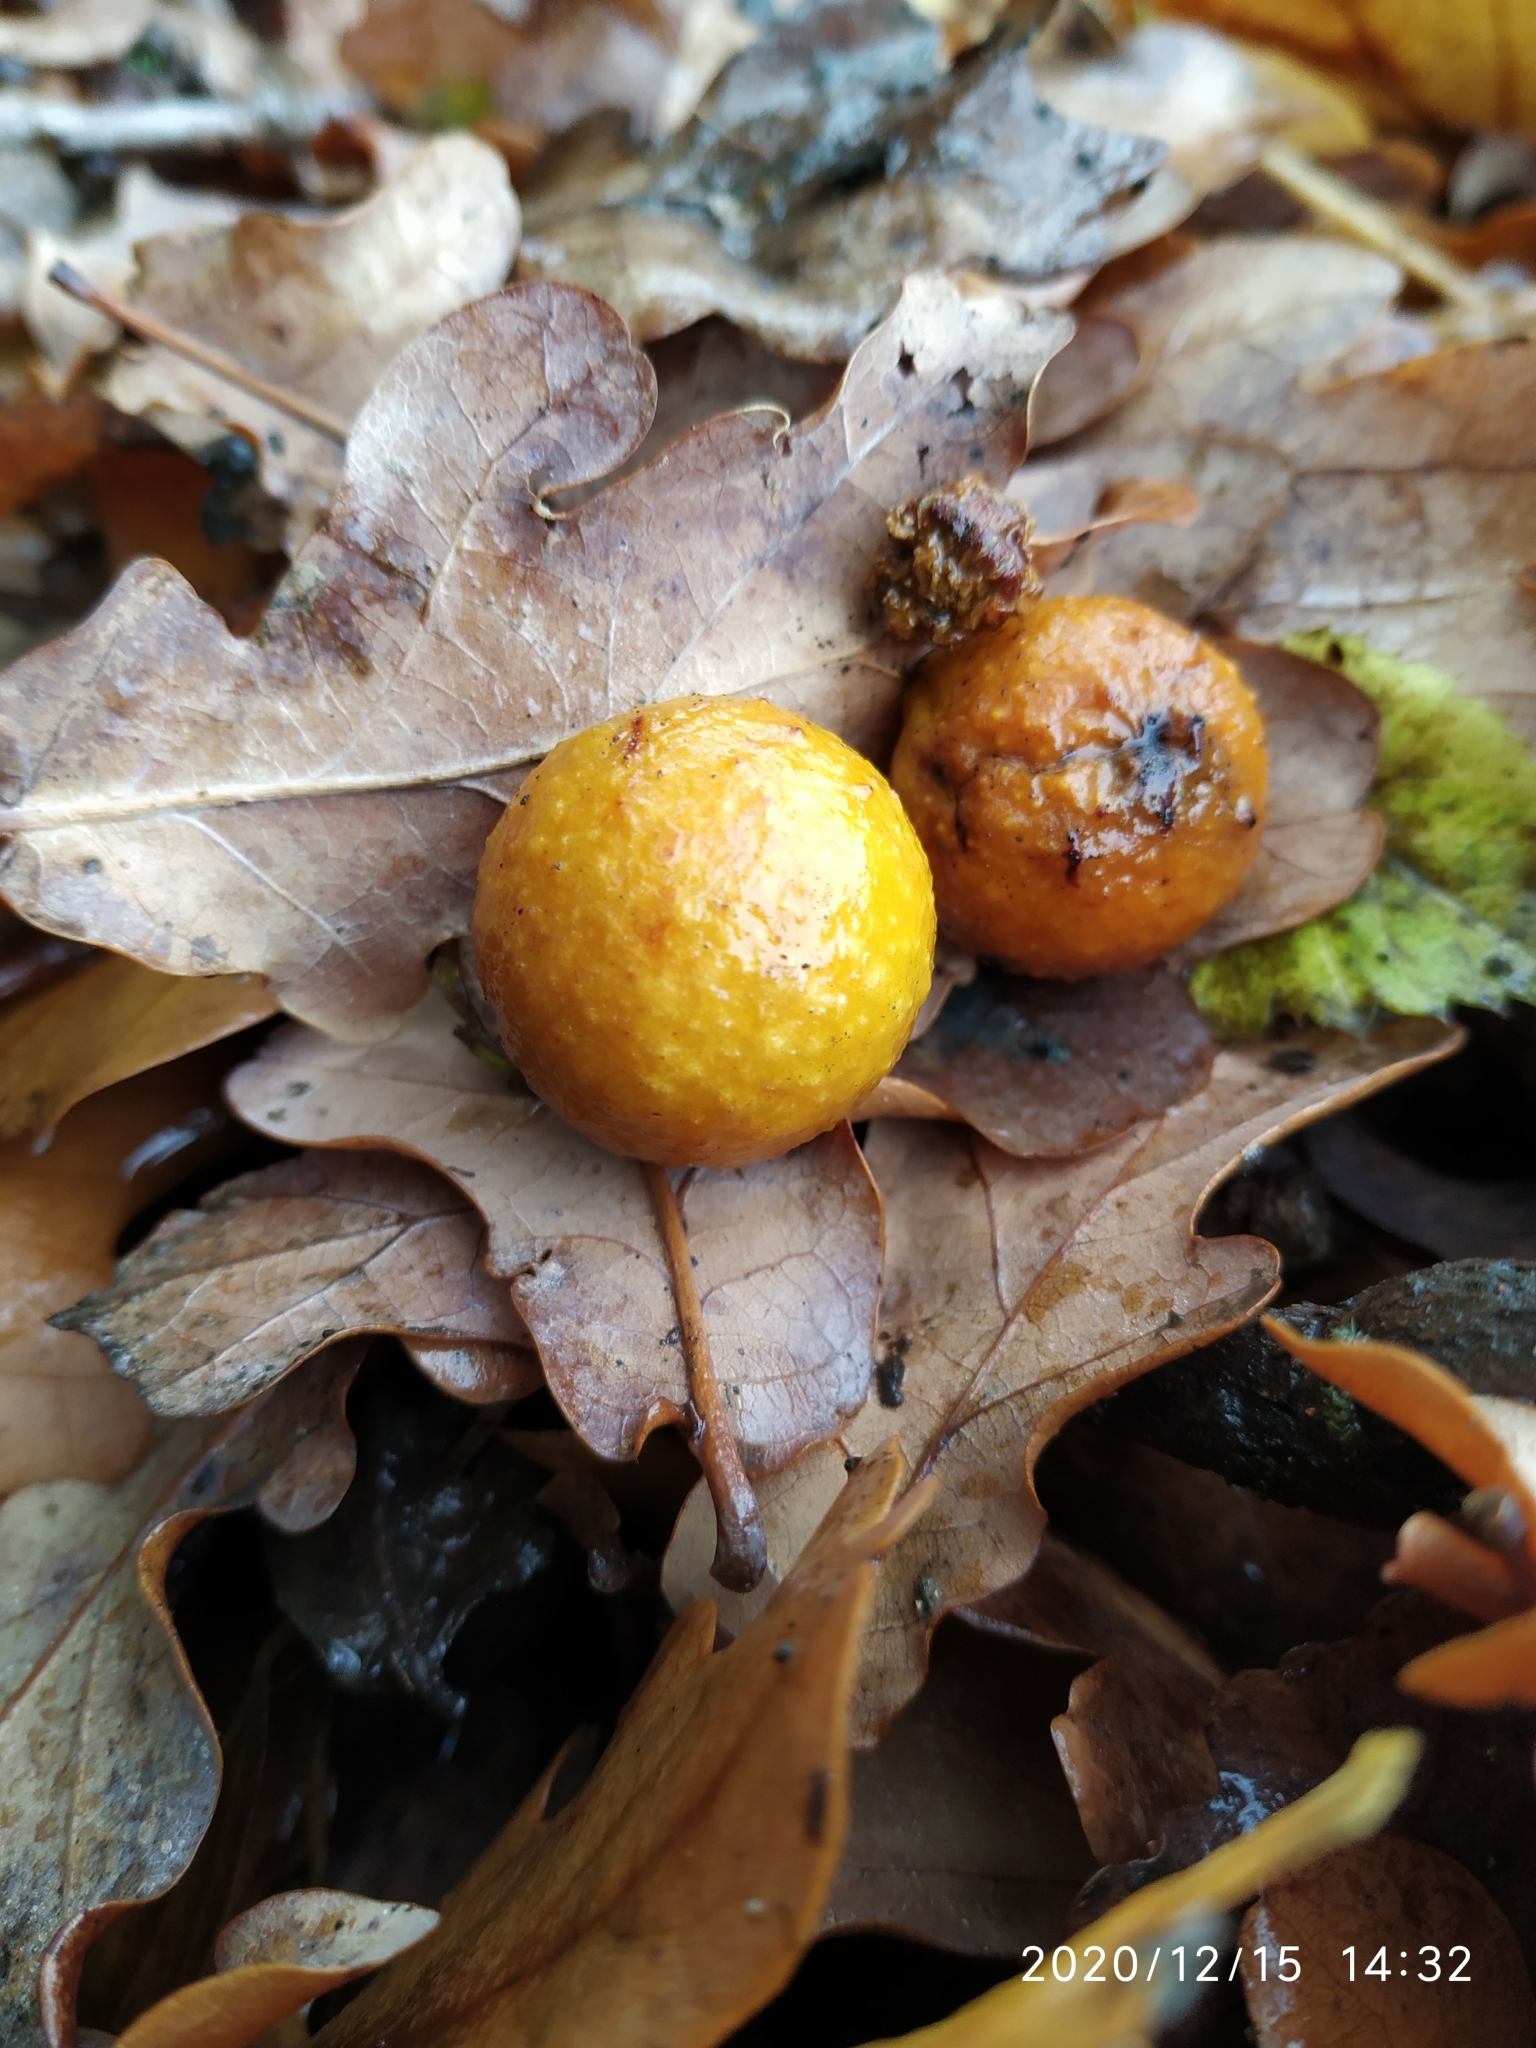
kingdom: Animalia
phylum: Arthropoda
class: Insecta
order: Hymenoptera
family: Cynipidae
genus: Cynips
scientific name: Cynips quercusfolii
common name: Cherry gall
